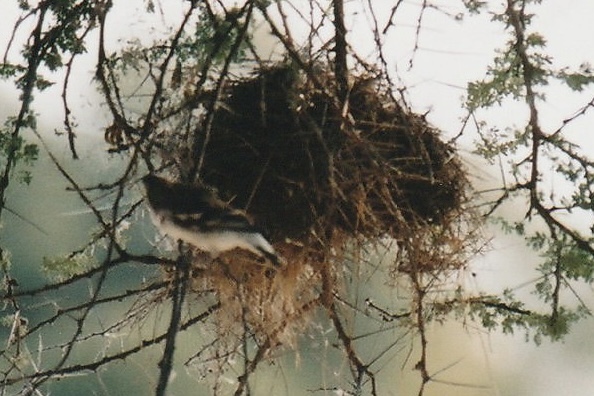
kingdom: Animalia
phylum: Chordata
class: Aves
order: Passeriformes
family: Passeridae
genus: Plocepasser
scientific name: Plocepasser mahali
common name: White-browed sparrow-weaver
